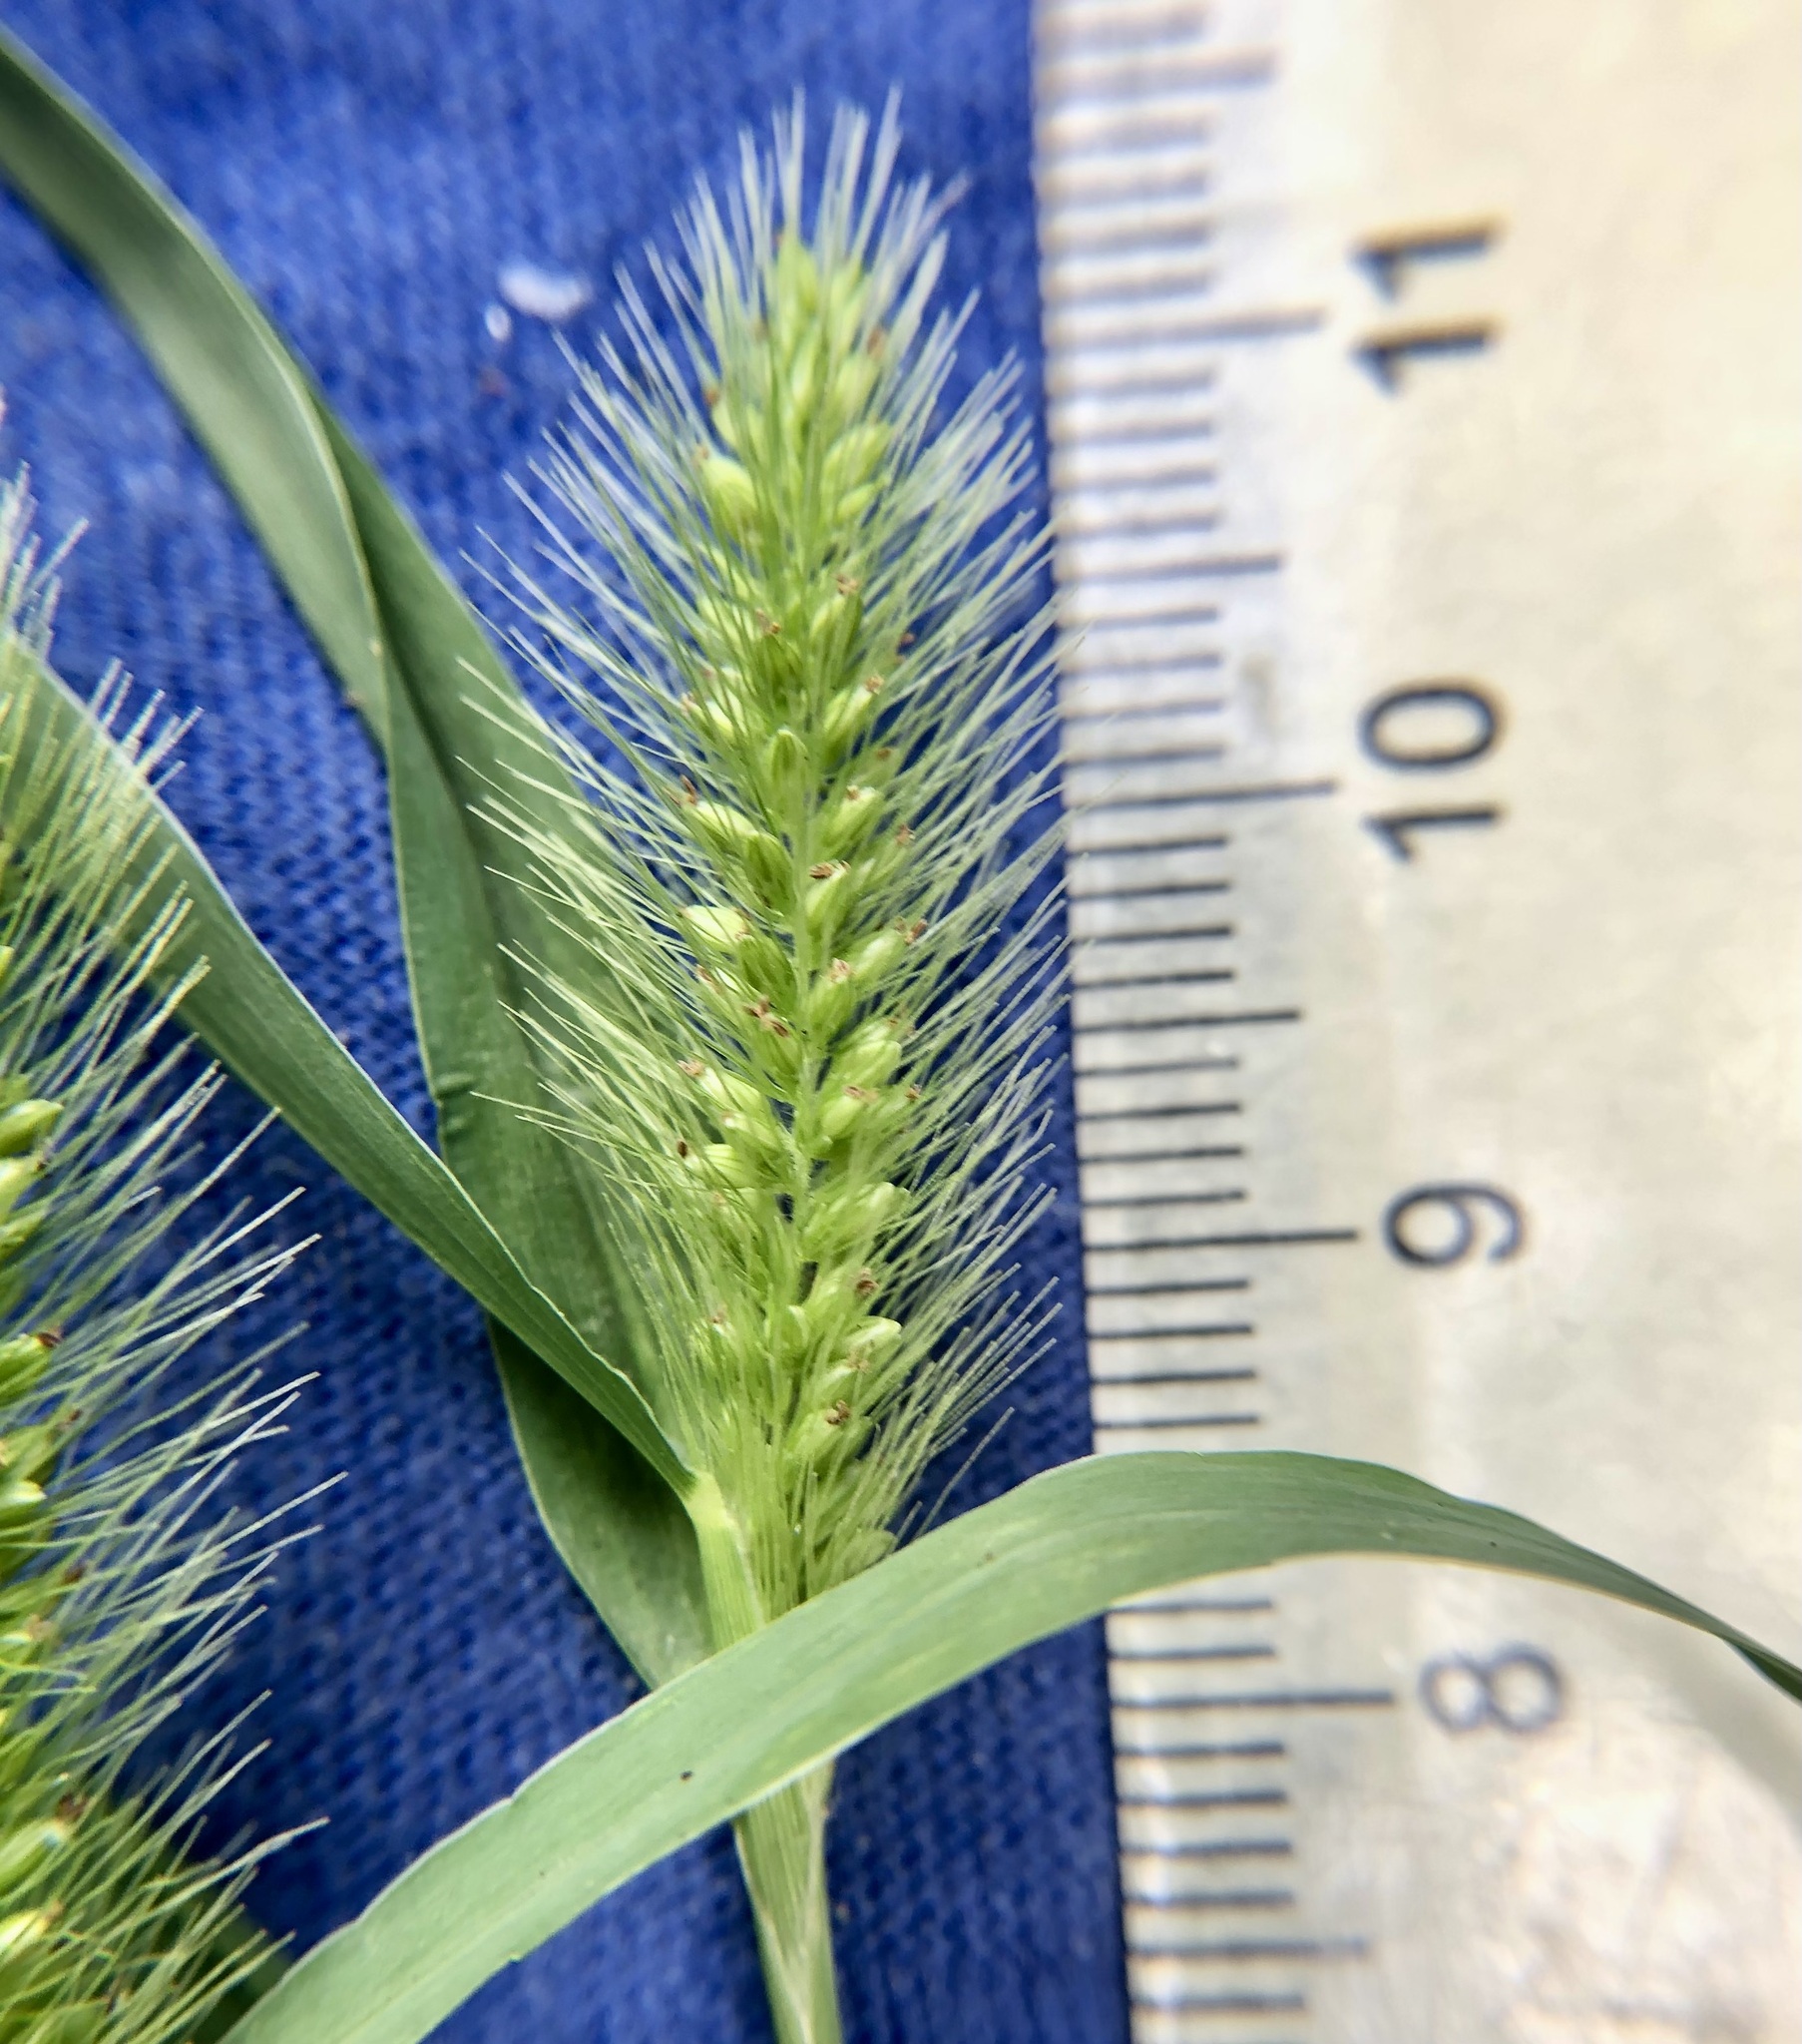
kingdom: Plantae
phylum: Tracheophyta
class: Liliopsida
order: Poales
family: Poaceae
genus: Setaria
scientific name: Setaria viridis
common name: Green bristlegrass
